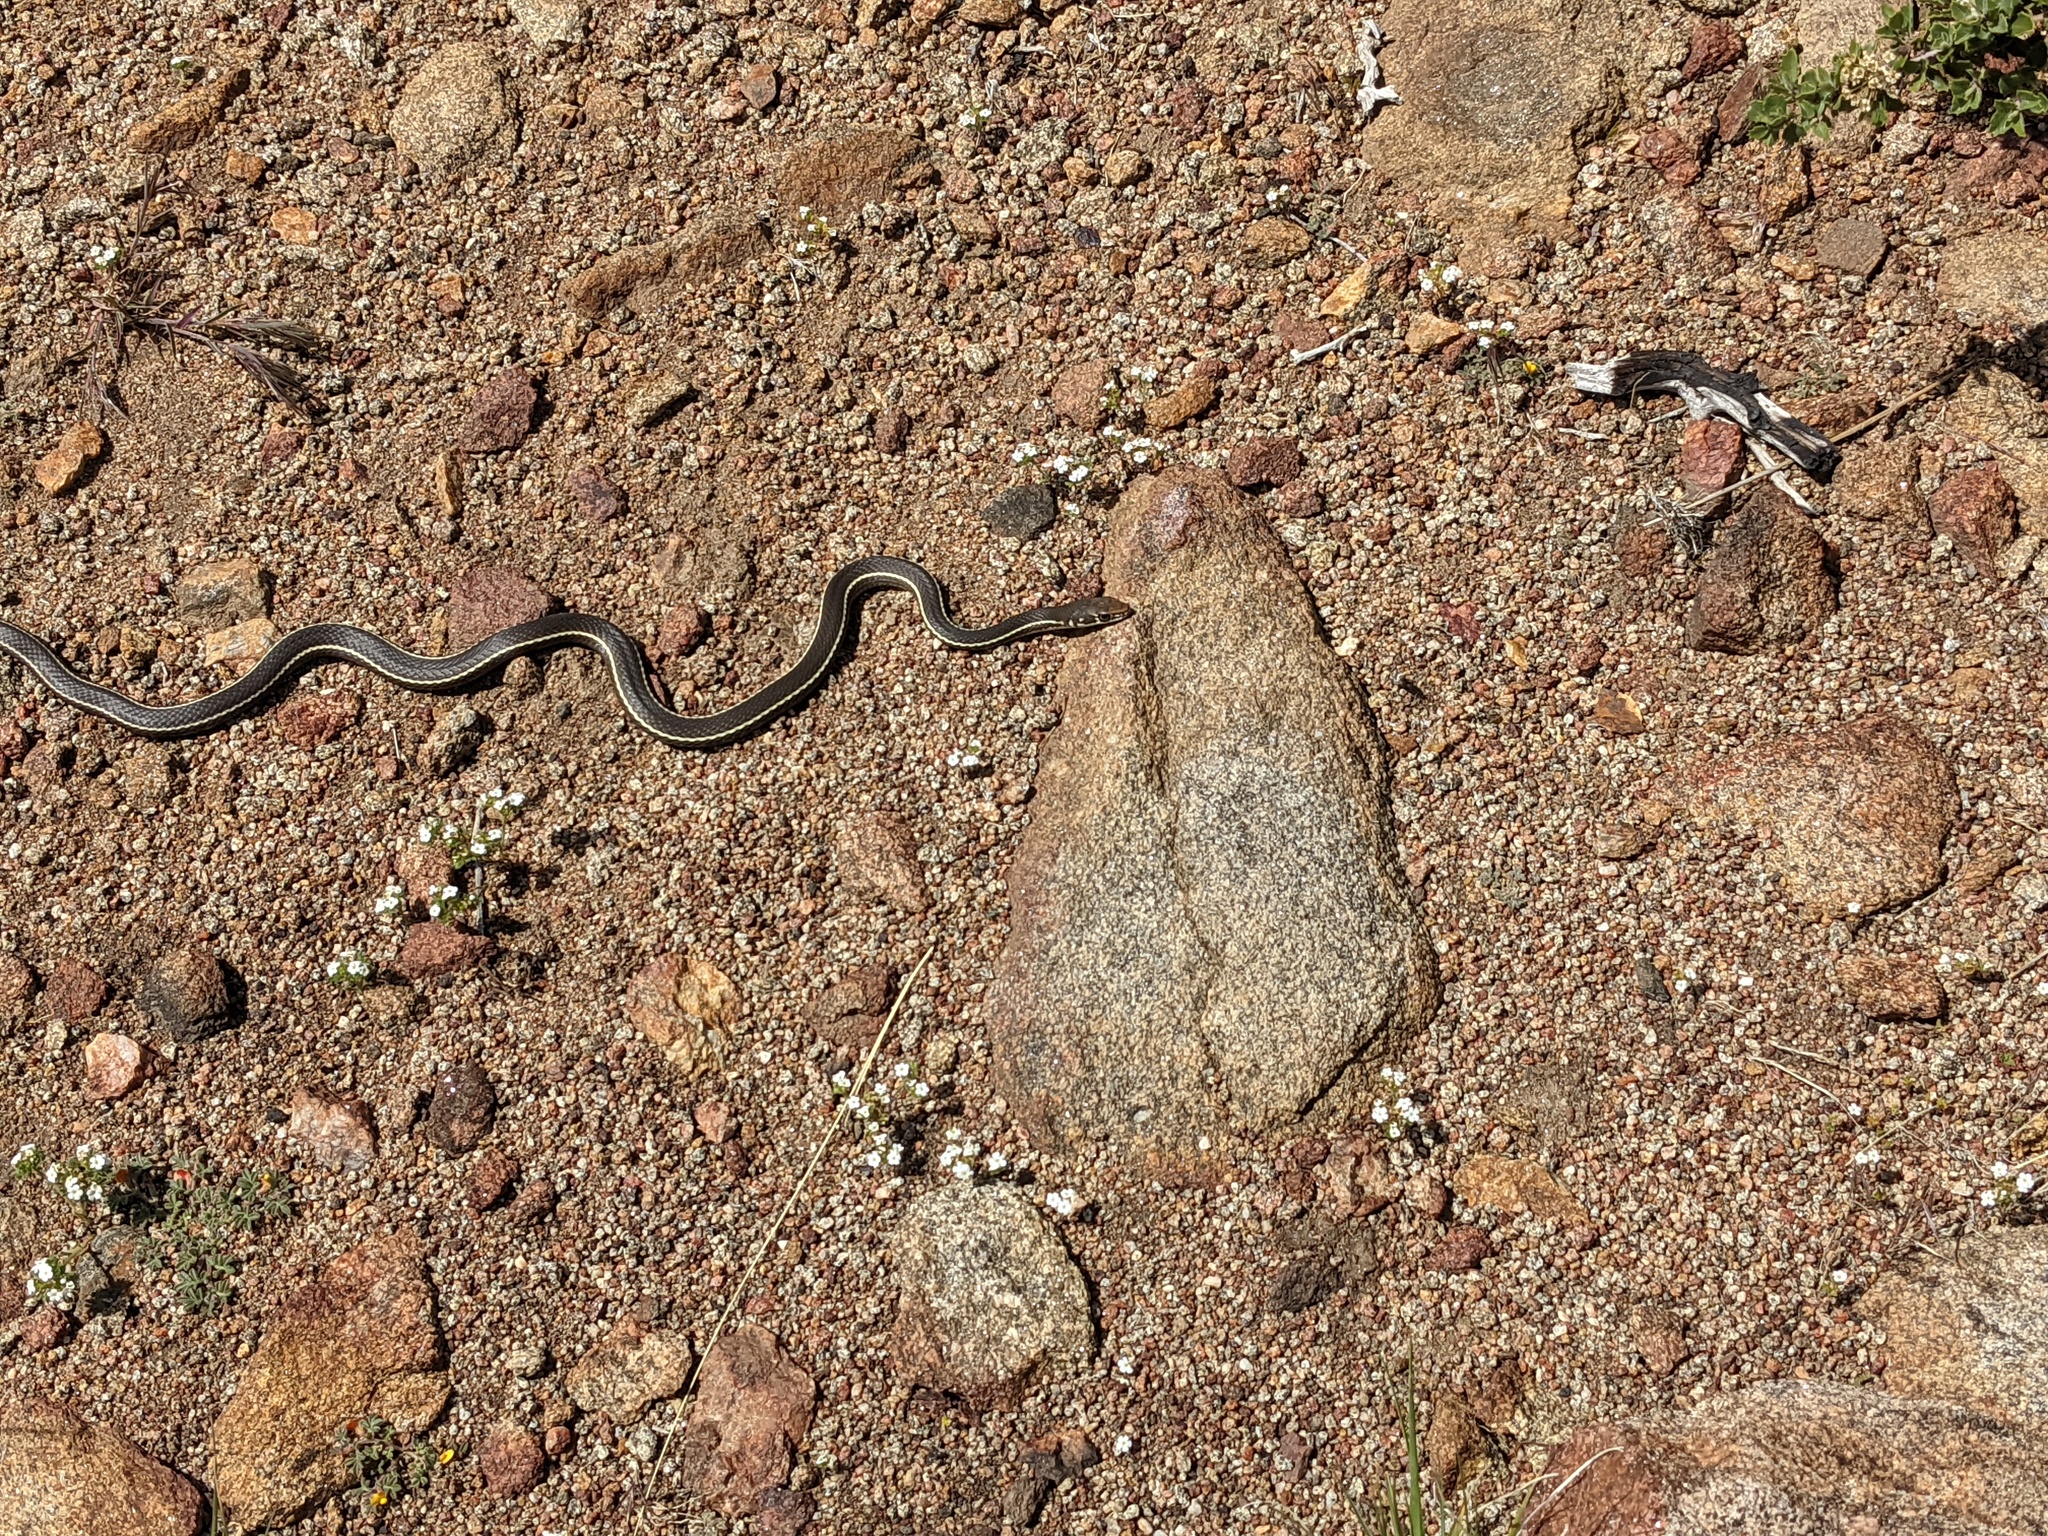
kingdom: Animalia
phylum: Chordata
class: Squamata
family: Colubridae
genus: Masticophis
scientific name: Masticophis lateralis
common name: Striped racer
